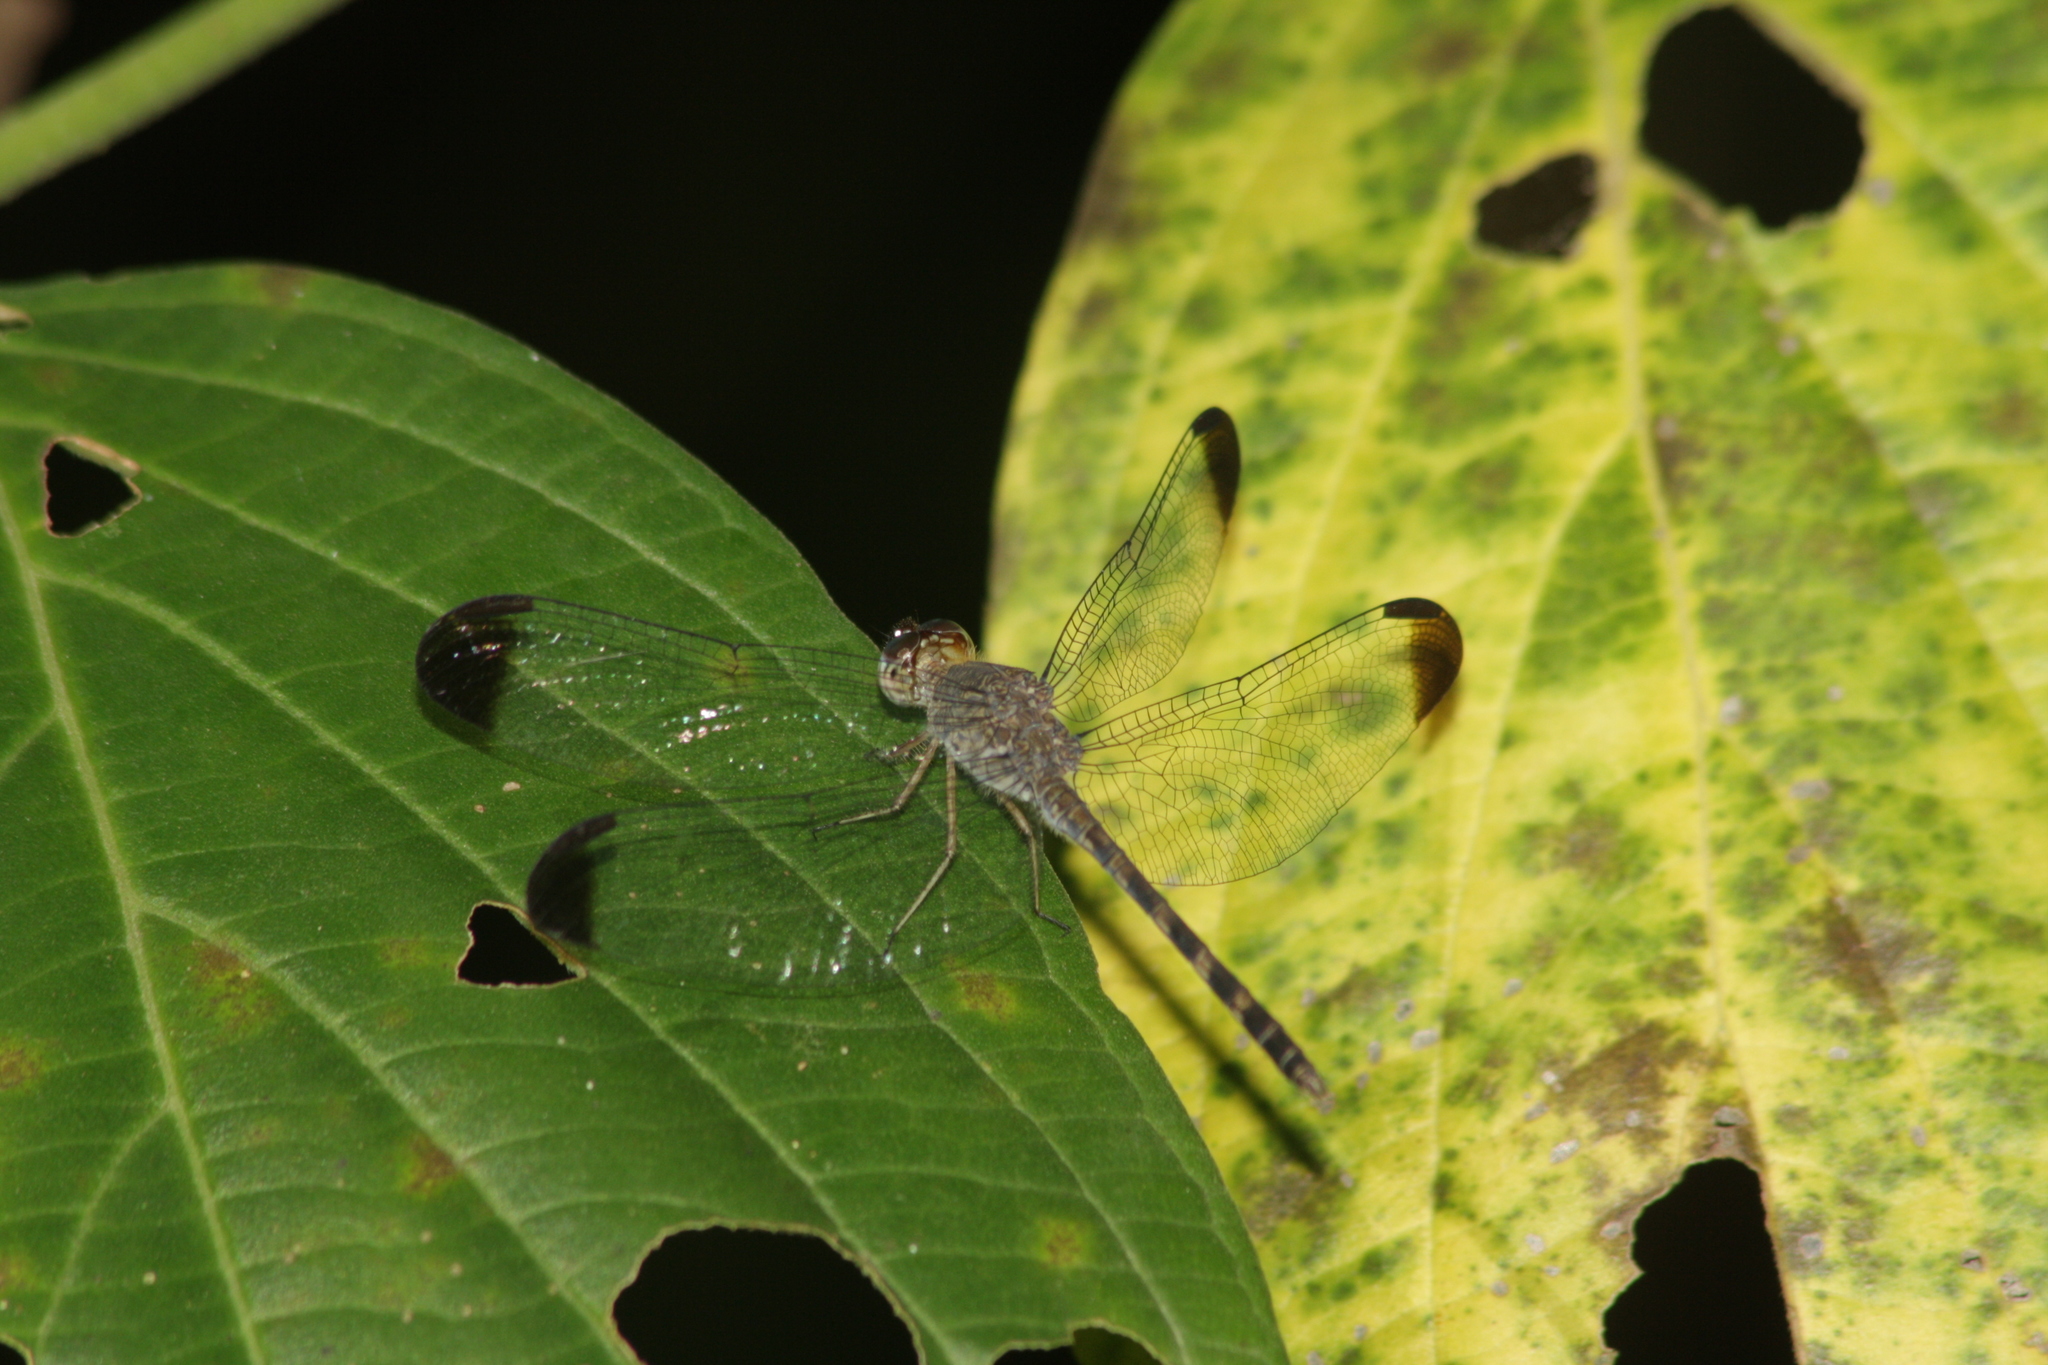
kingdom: Animalia
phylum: Arthropoda
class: Insecta
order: Odonata
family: Libellulidae
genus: Uracis
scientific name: Uracis imbuta
